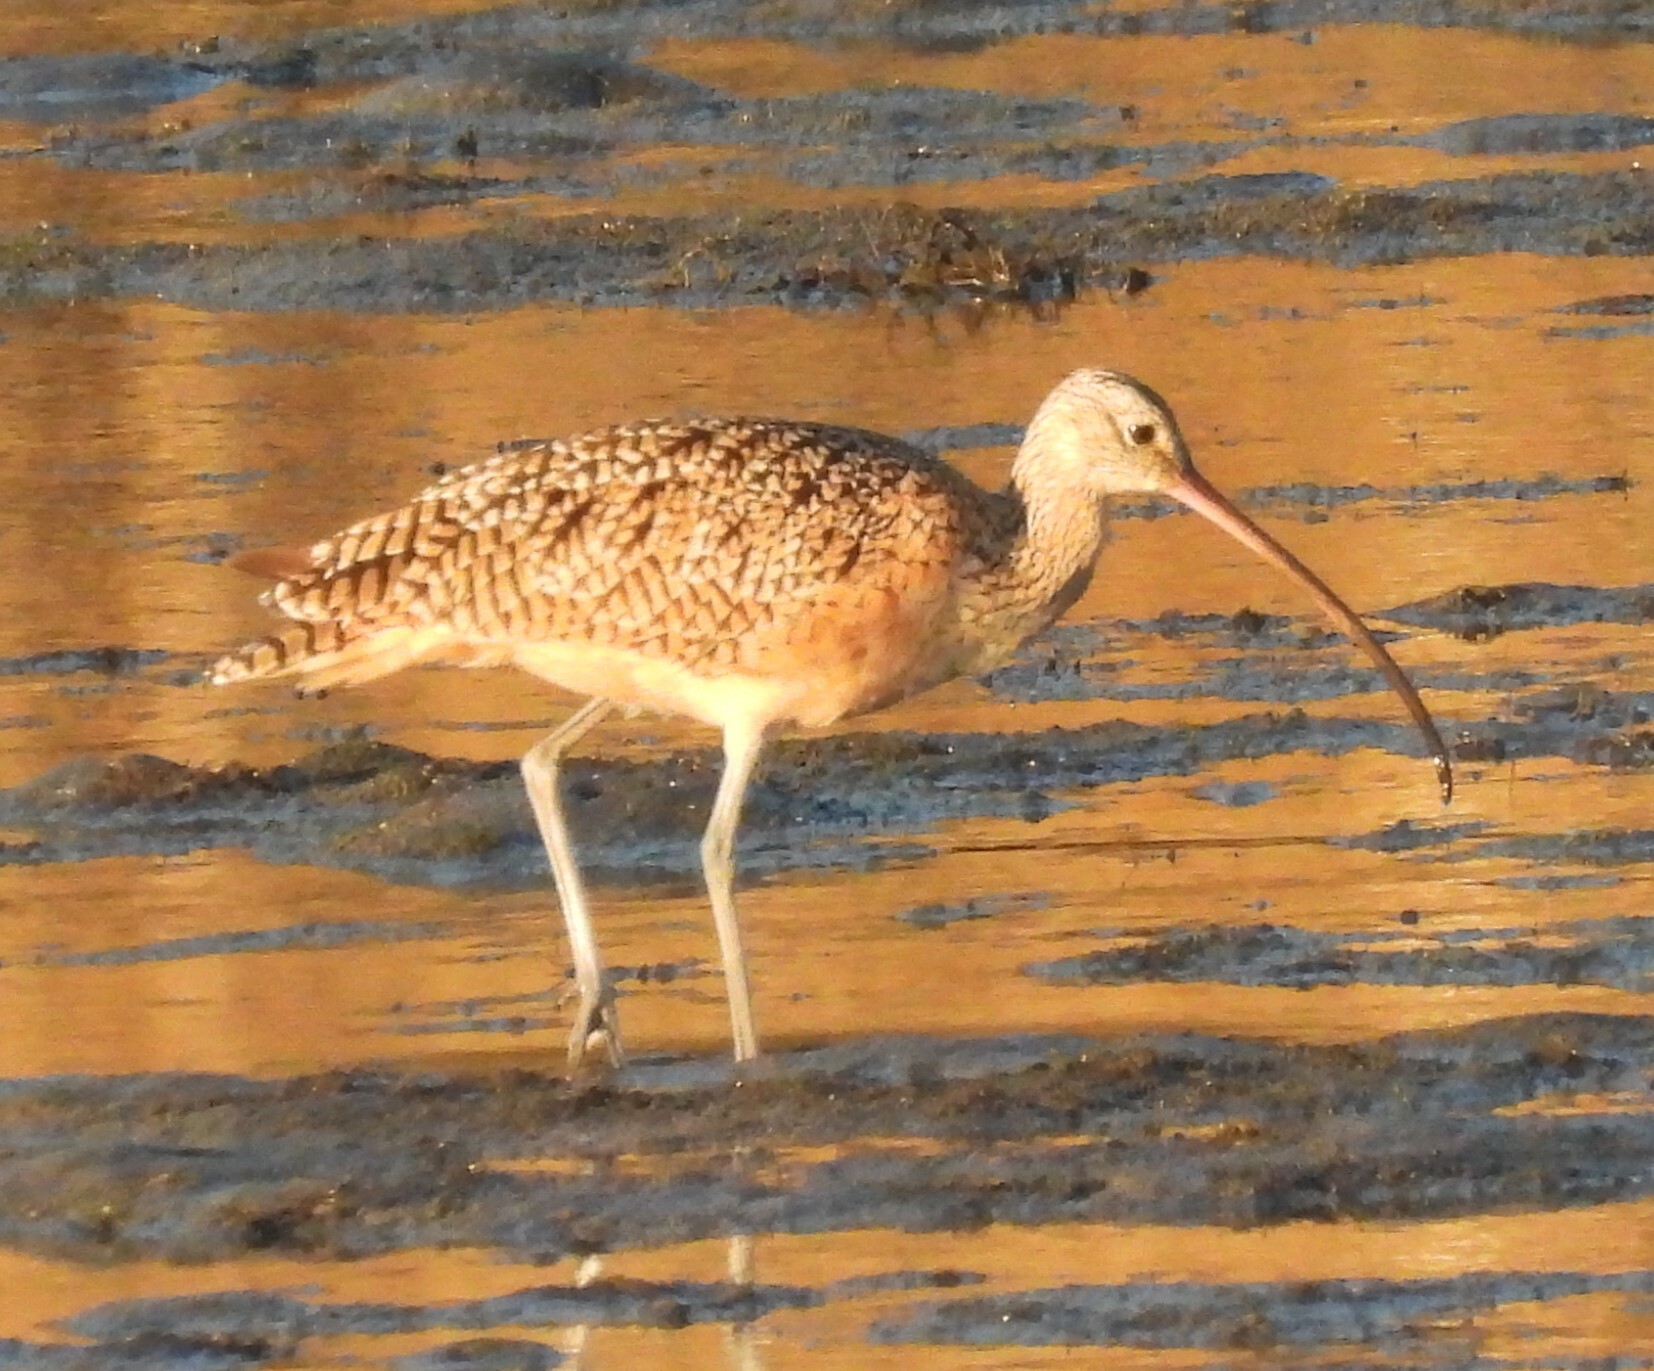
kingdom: Animalia
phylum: Chordata
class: Aves
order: Charadriiformes
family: Scolopacidae
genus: Numenius
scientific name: Numenius americanus
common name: Long-billed curlew
